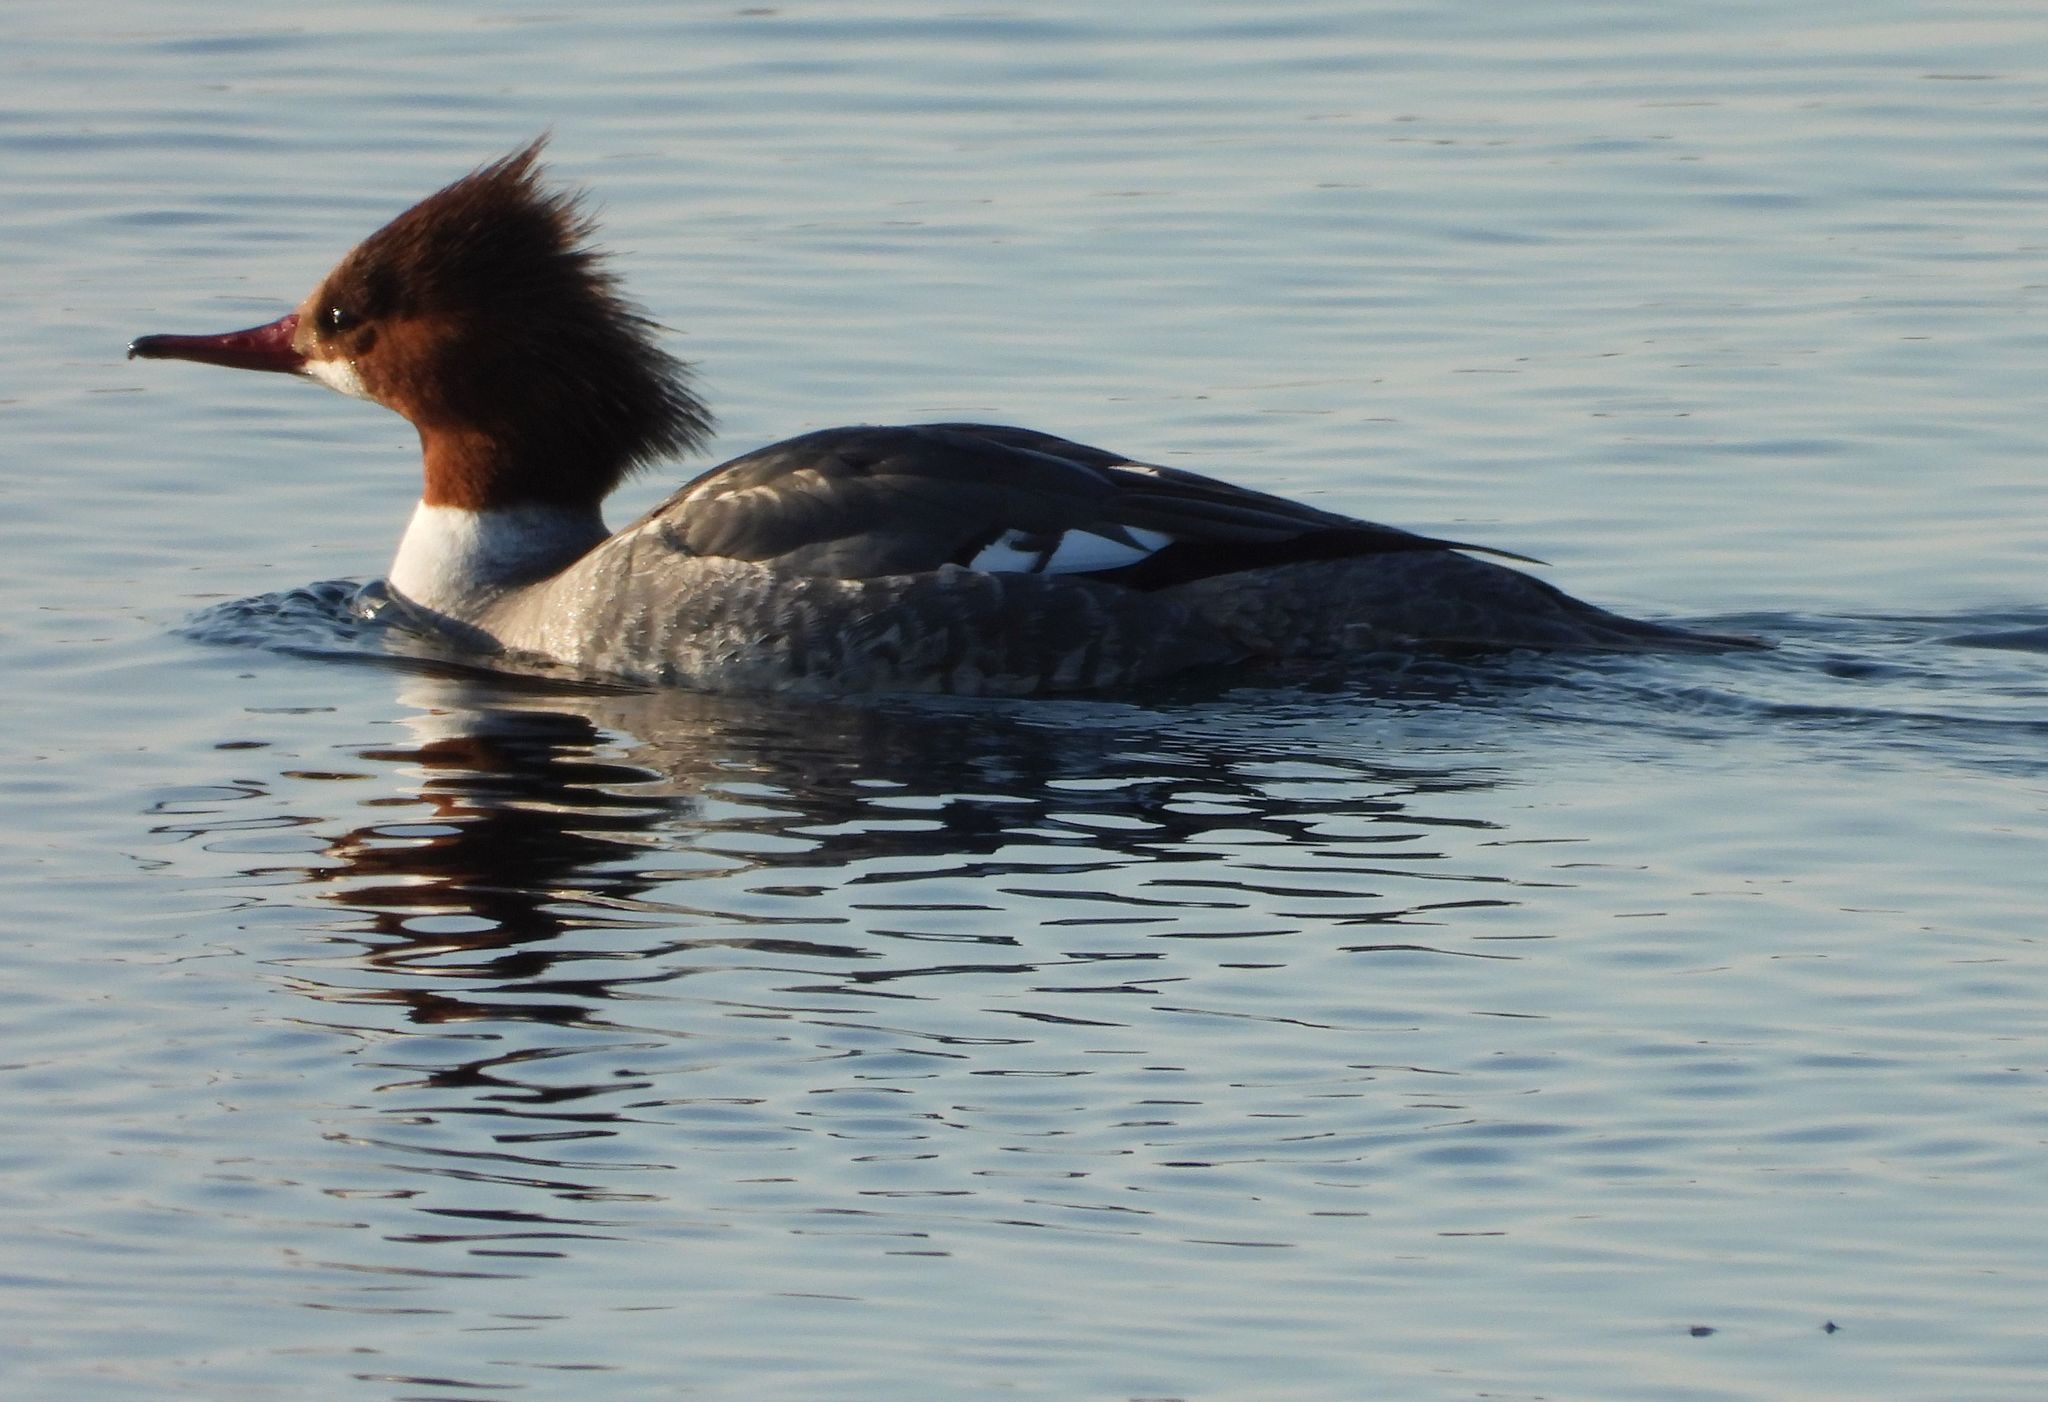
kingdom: Animalia
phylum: Chordata
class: Aves
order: Anseriformes
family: Anatidae
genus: Mergus
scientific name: Mergus merganser
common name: Common merganser
